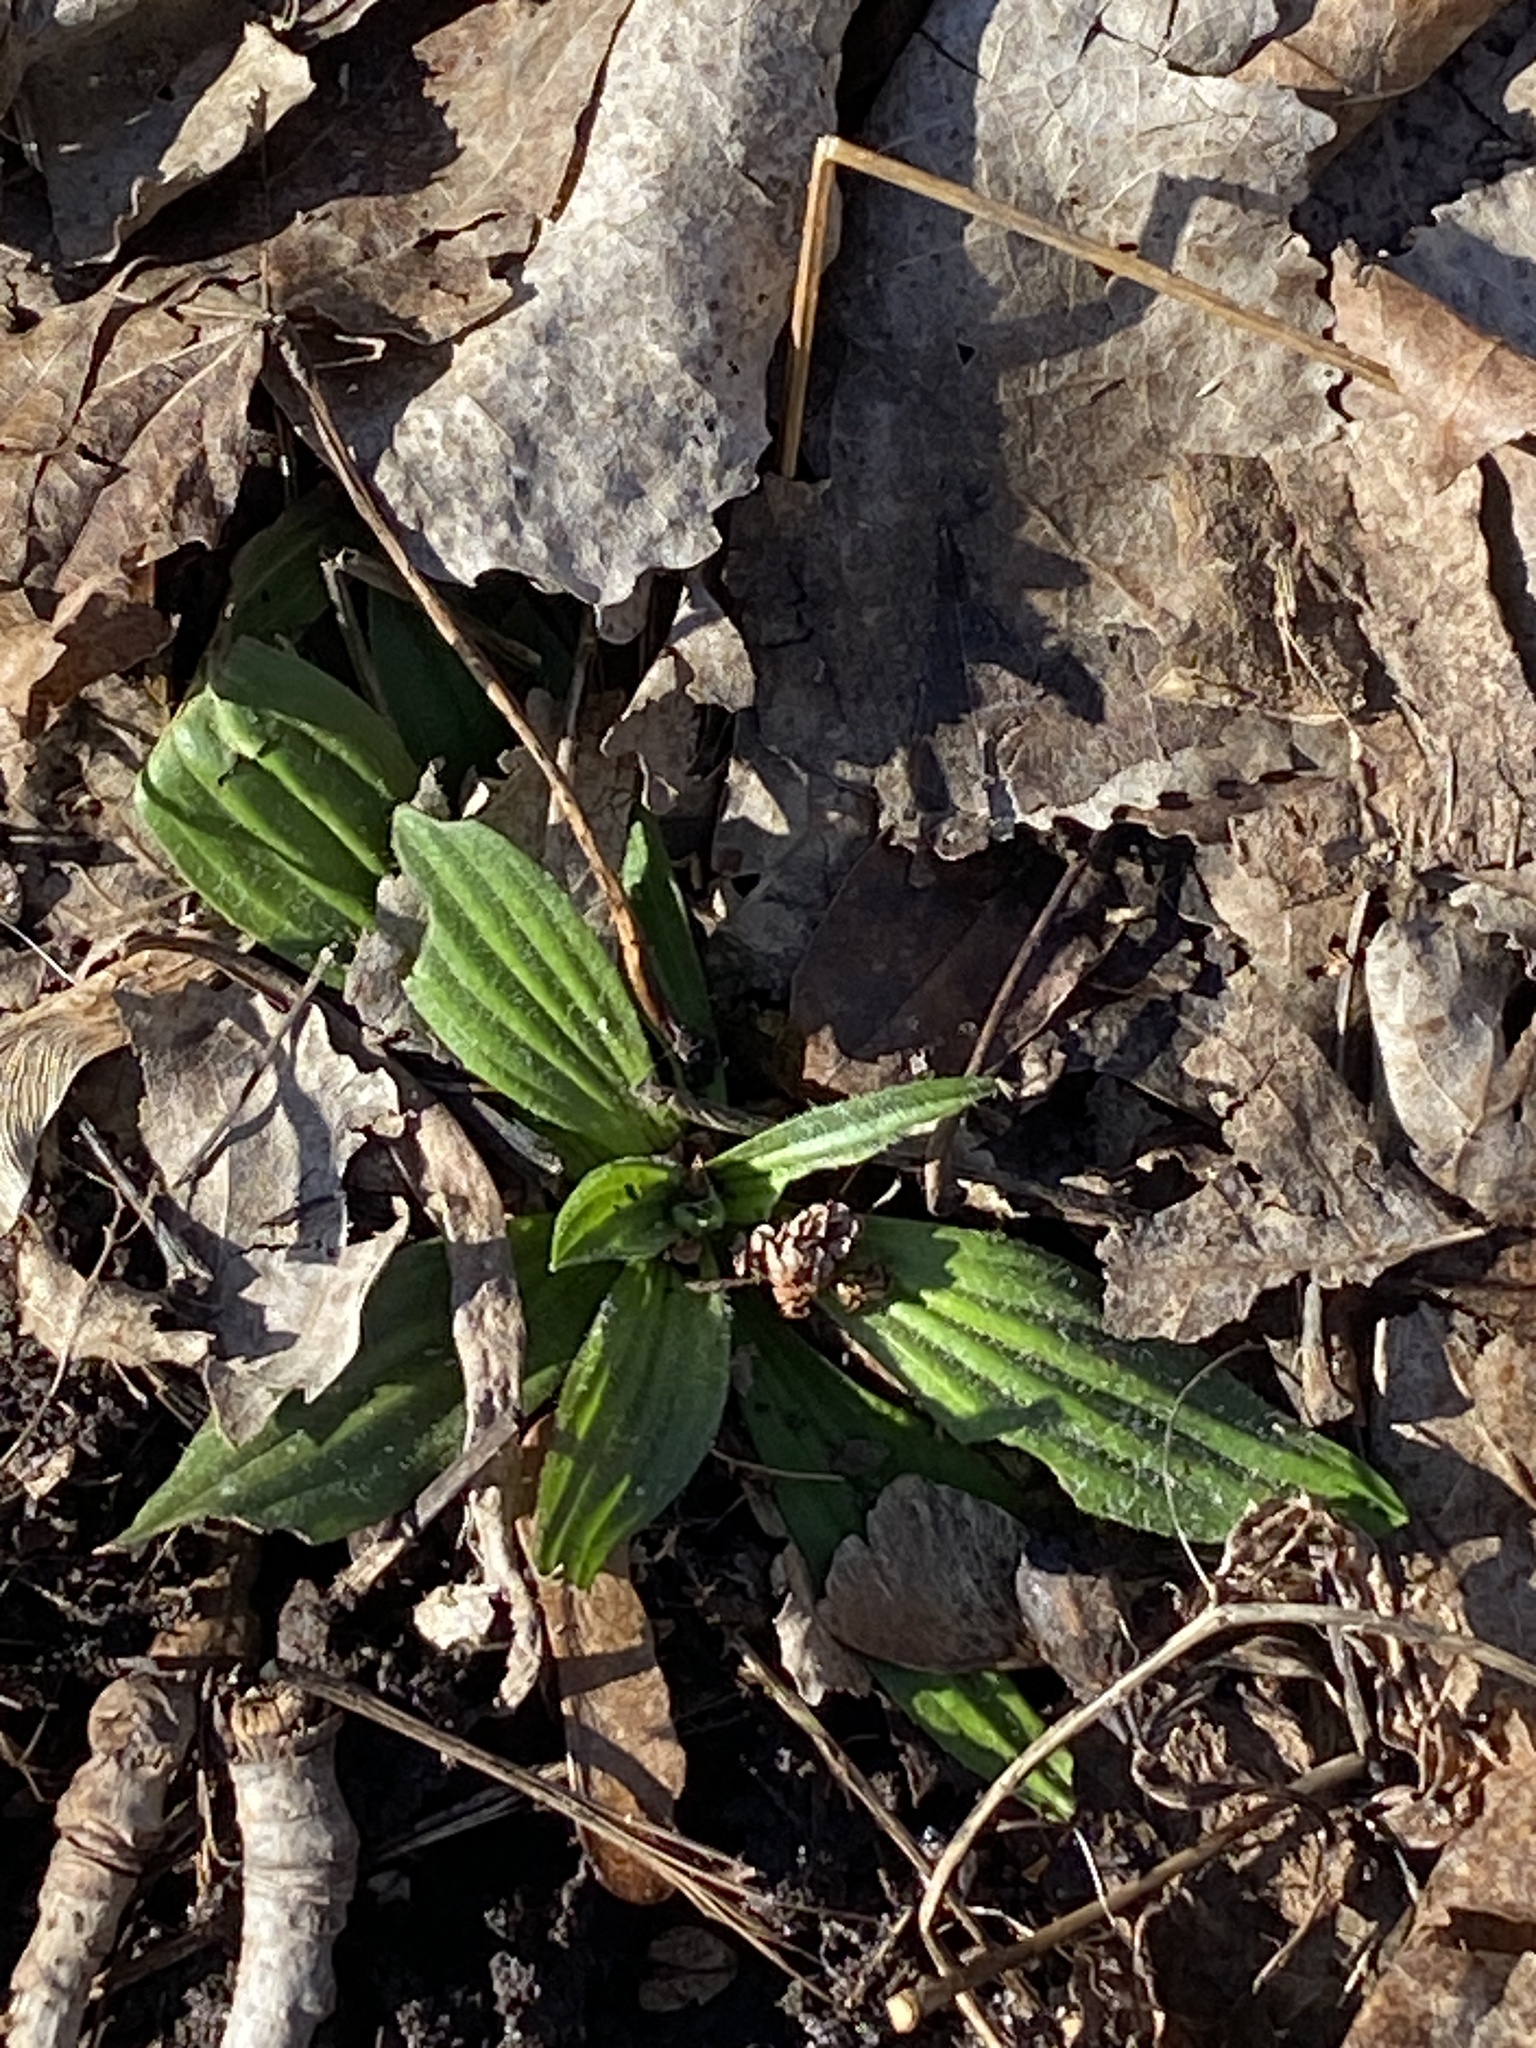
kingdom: Plantae
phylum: Tracheophyta
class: Magnoliopsida
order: Lamiales
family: Plantaginaceae
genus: Plantago
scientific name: Plantago lanceolata
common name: Ribwort plantain
